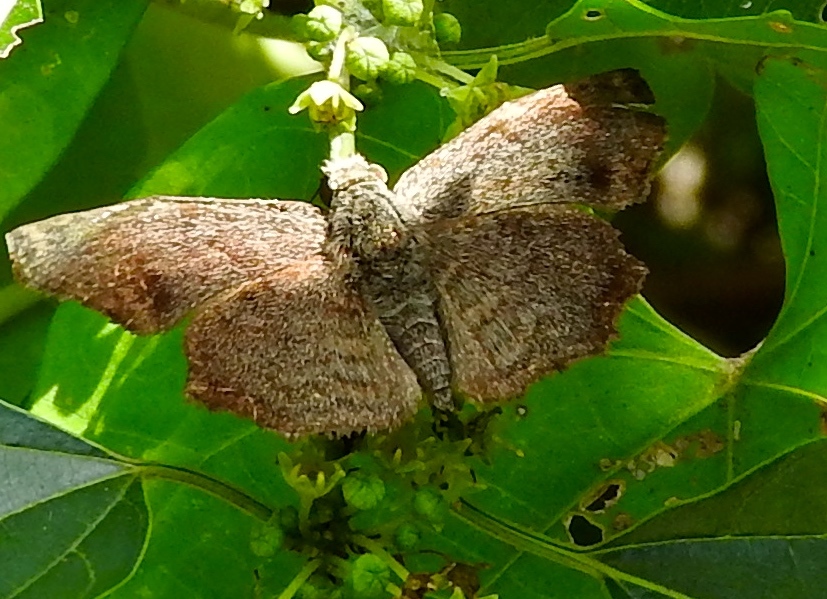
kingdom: Animalia
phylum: Arthropoda
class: Insecta
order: Lepidoptera
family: Hesperiidae
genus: Antigonus
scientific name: Antigonus erosus
